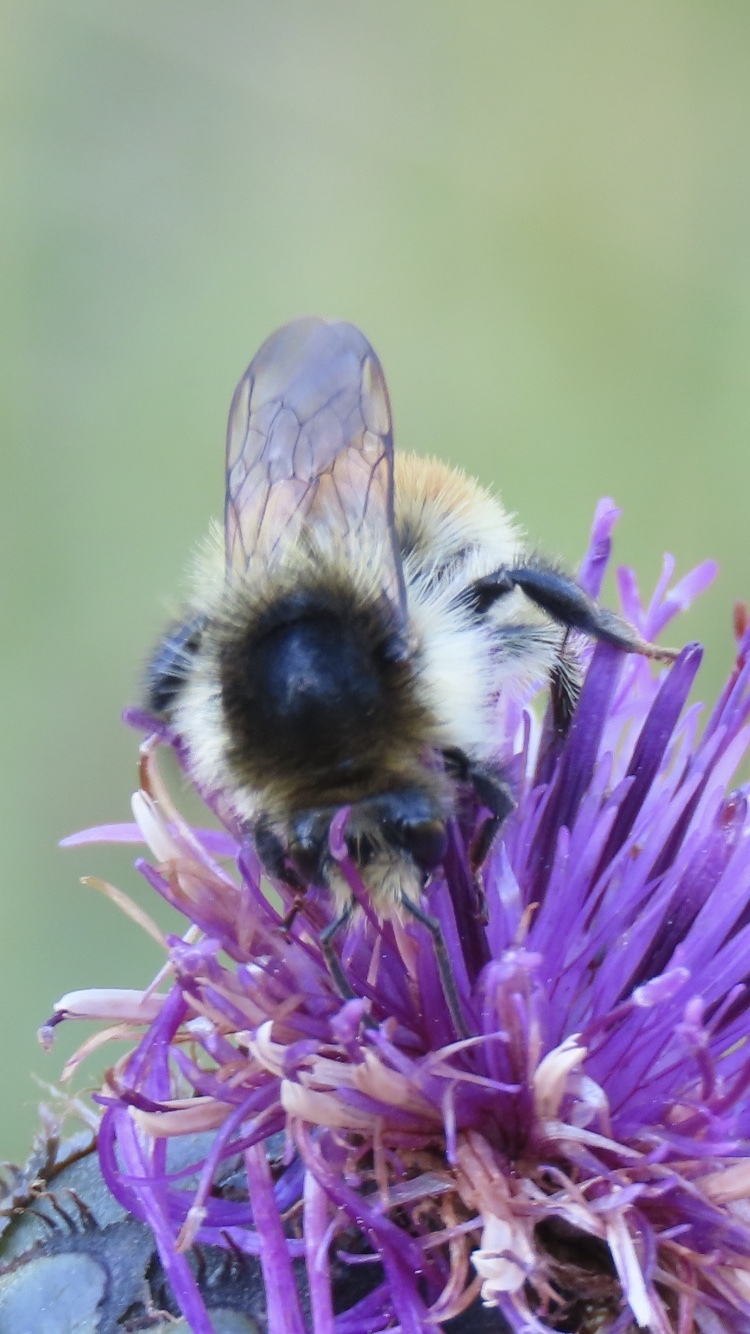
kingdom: Animalia
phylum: Arthropoda
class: Insecta
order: Hymenoptera
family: Apidae
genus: Bombus
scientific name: Bombus humilis
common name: Brown-banded carder-bee
